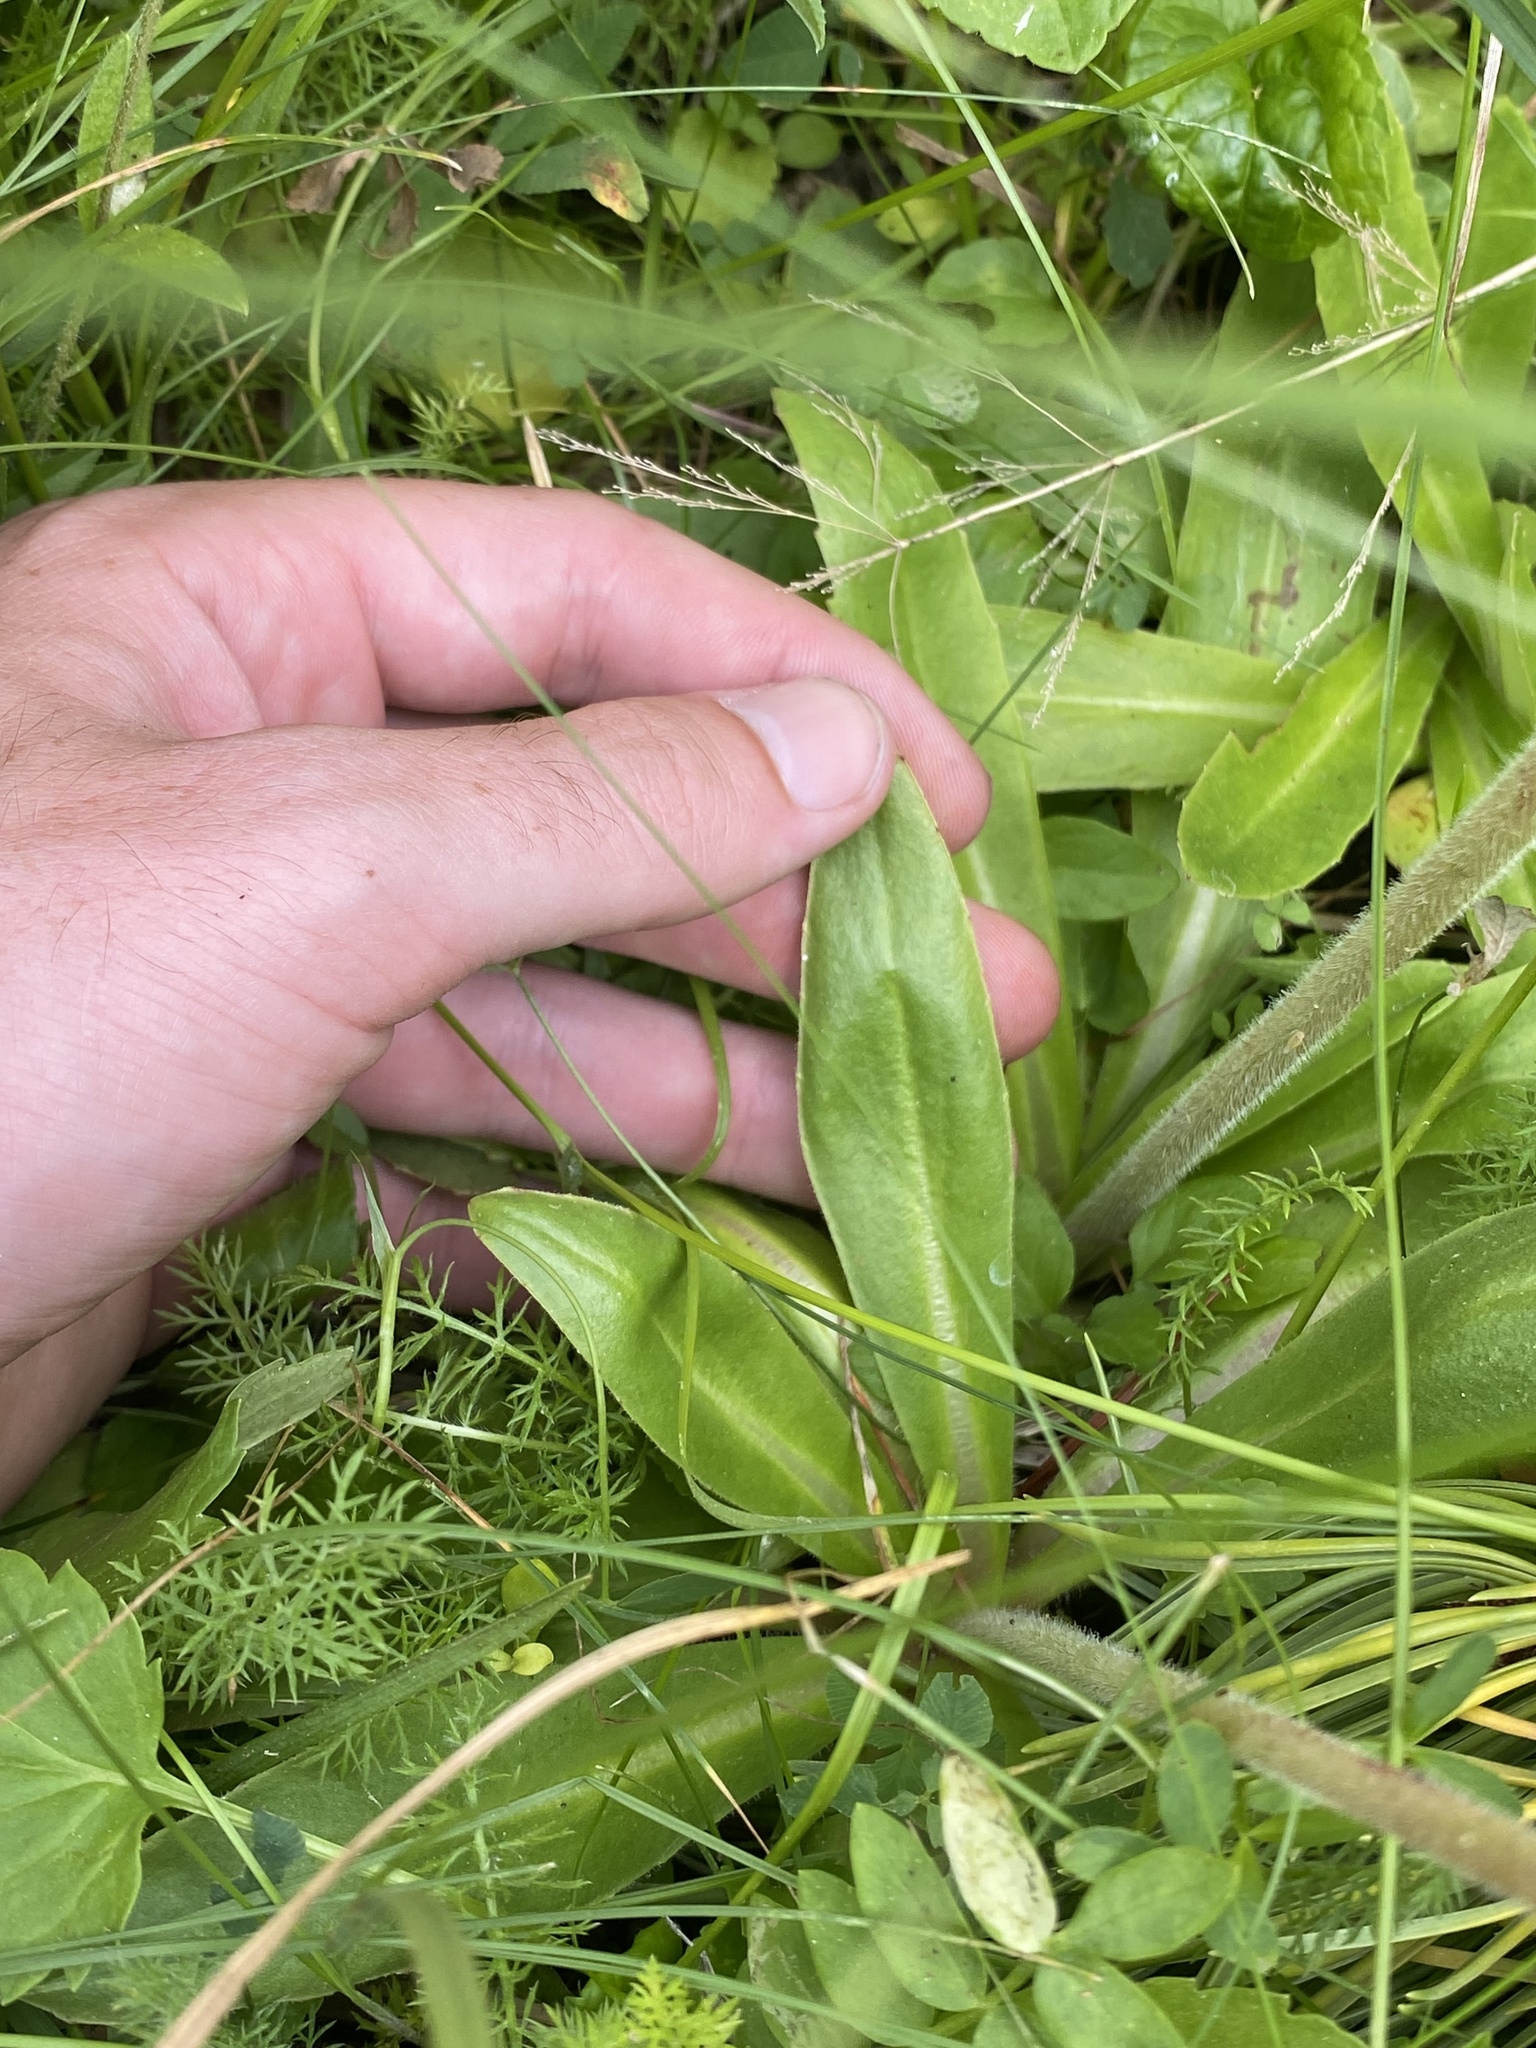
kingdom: Plantae
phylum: Tracheophyta
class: Magnoliopsida
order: Saxifragales
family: Saxifragaceae
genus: Micranthes
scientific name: Micranthes oregana
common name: Bog saxifrage
